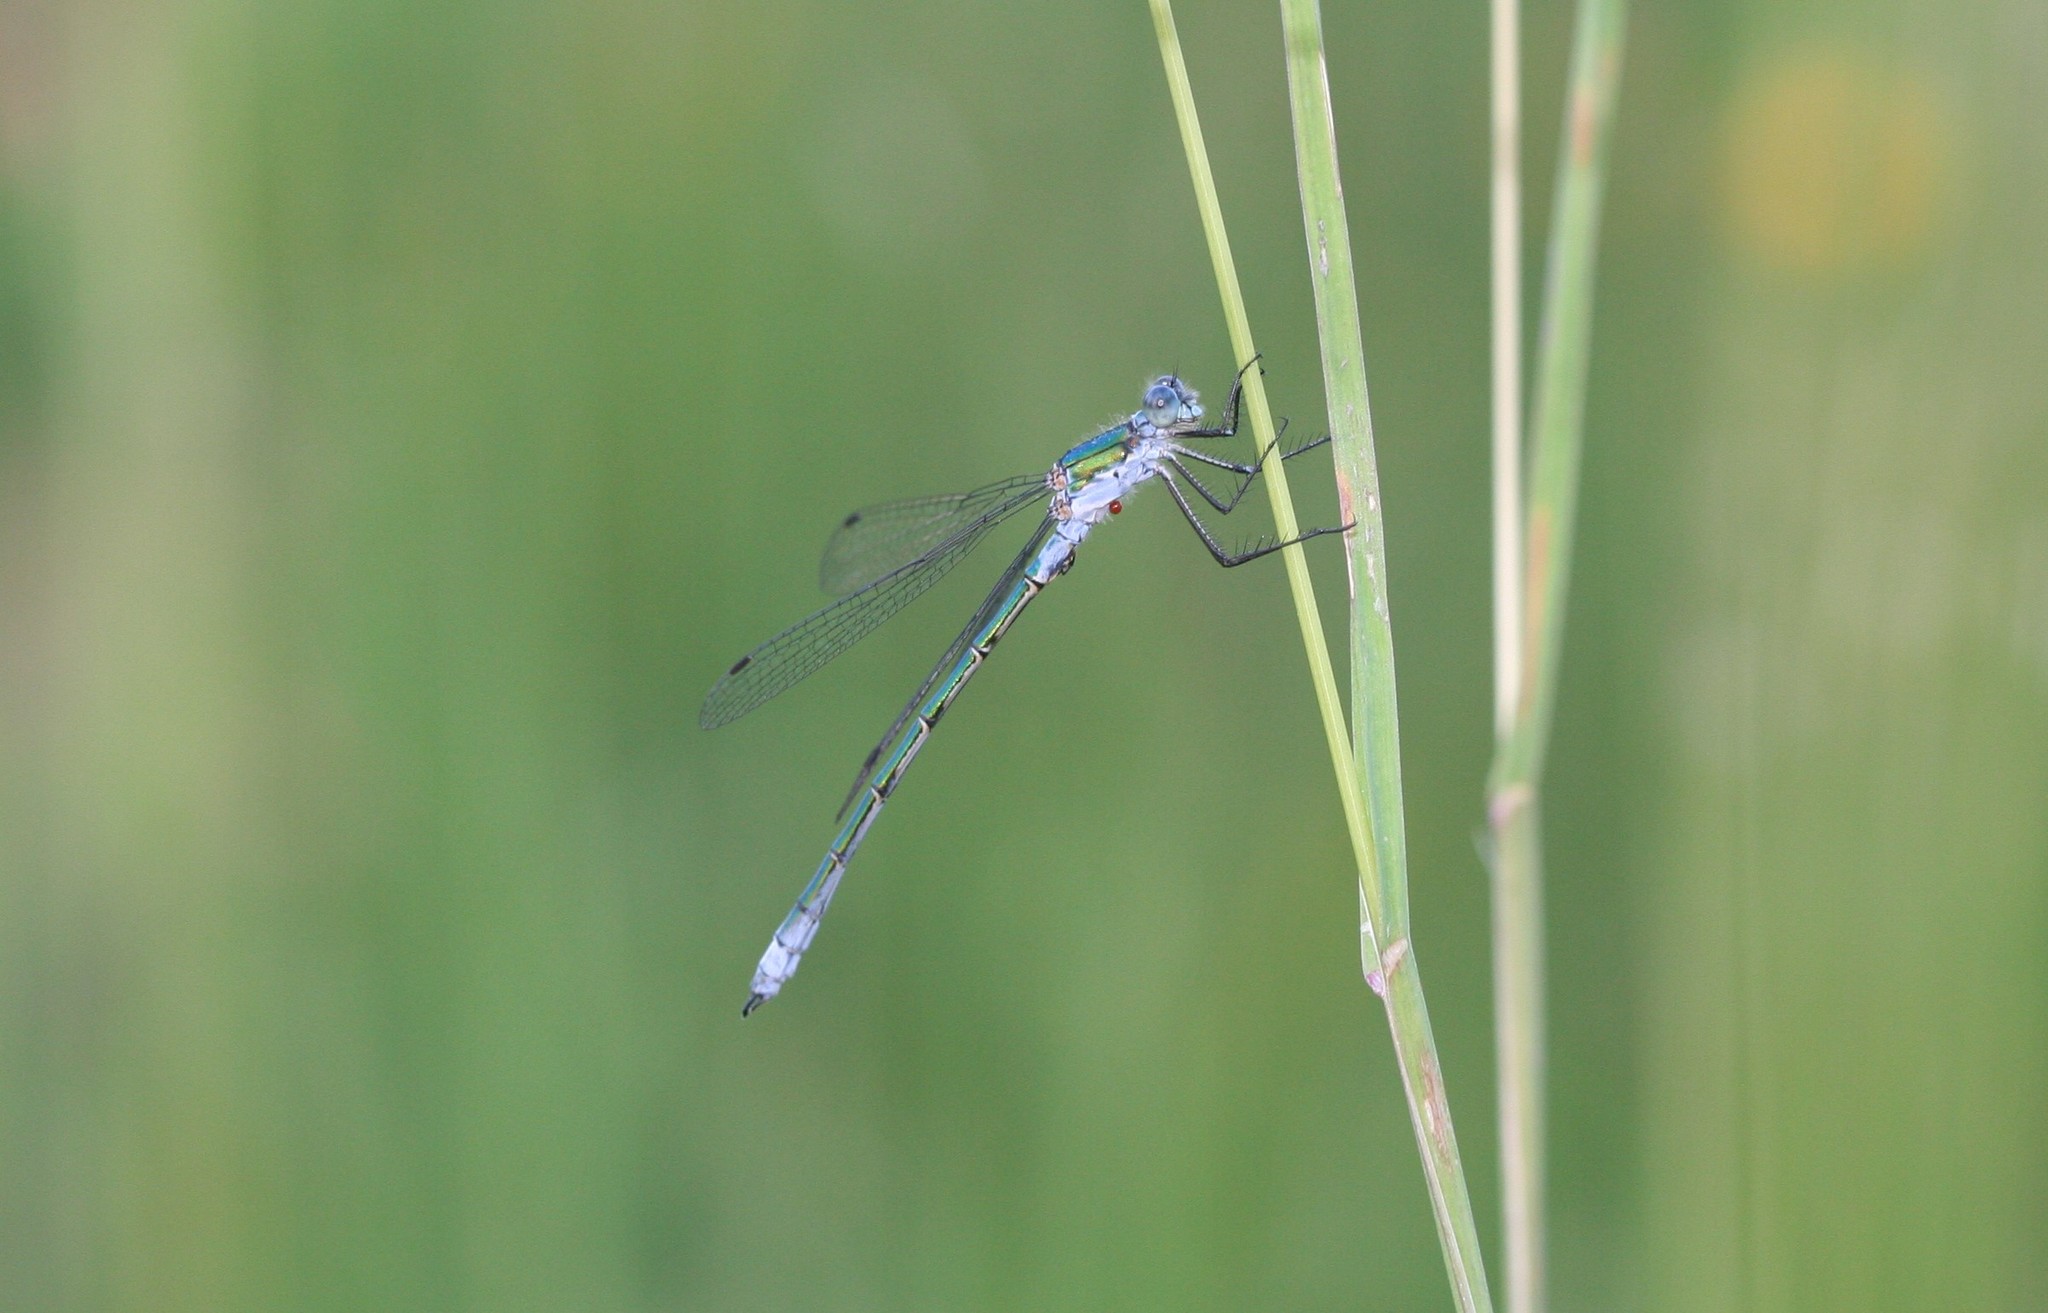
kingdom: Animalia
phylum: Arthropoda
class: Insecta
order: Odonata
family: Lestidae
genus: Lestes
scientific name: Lestes dryas
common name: Scarce emerald damselfly
